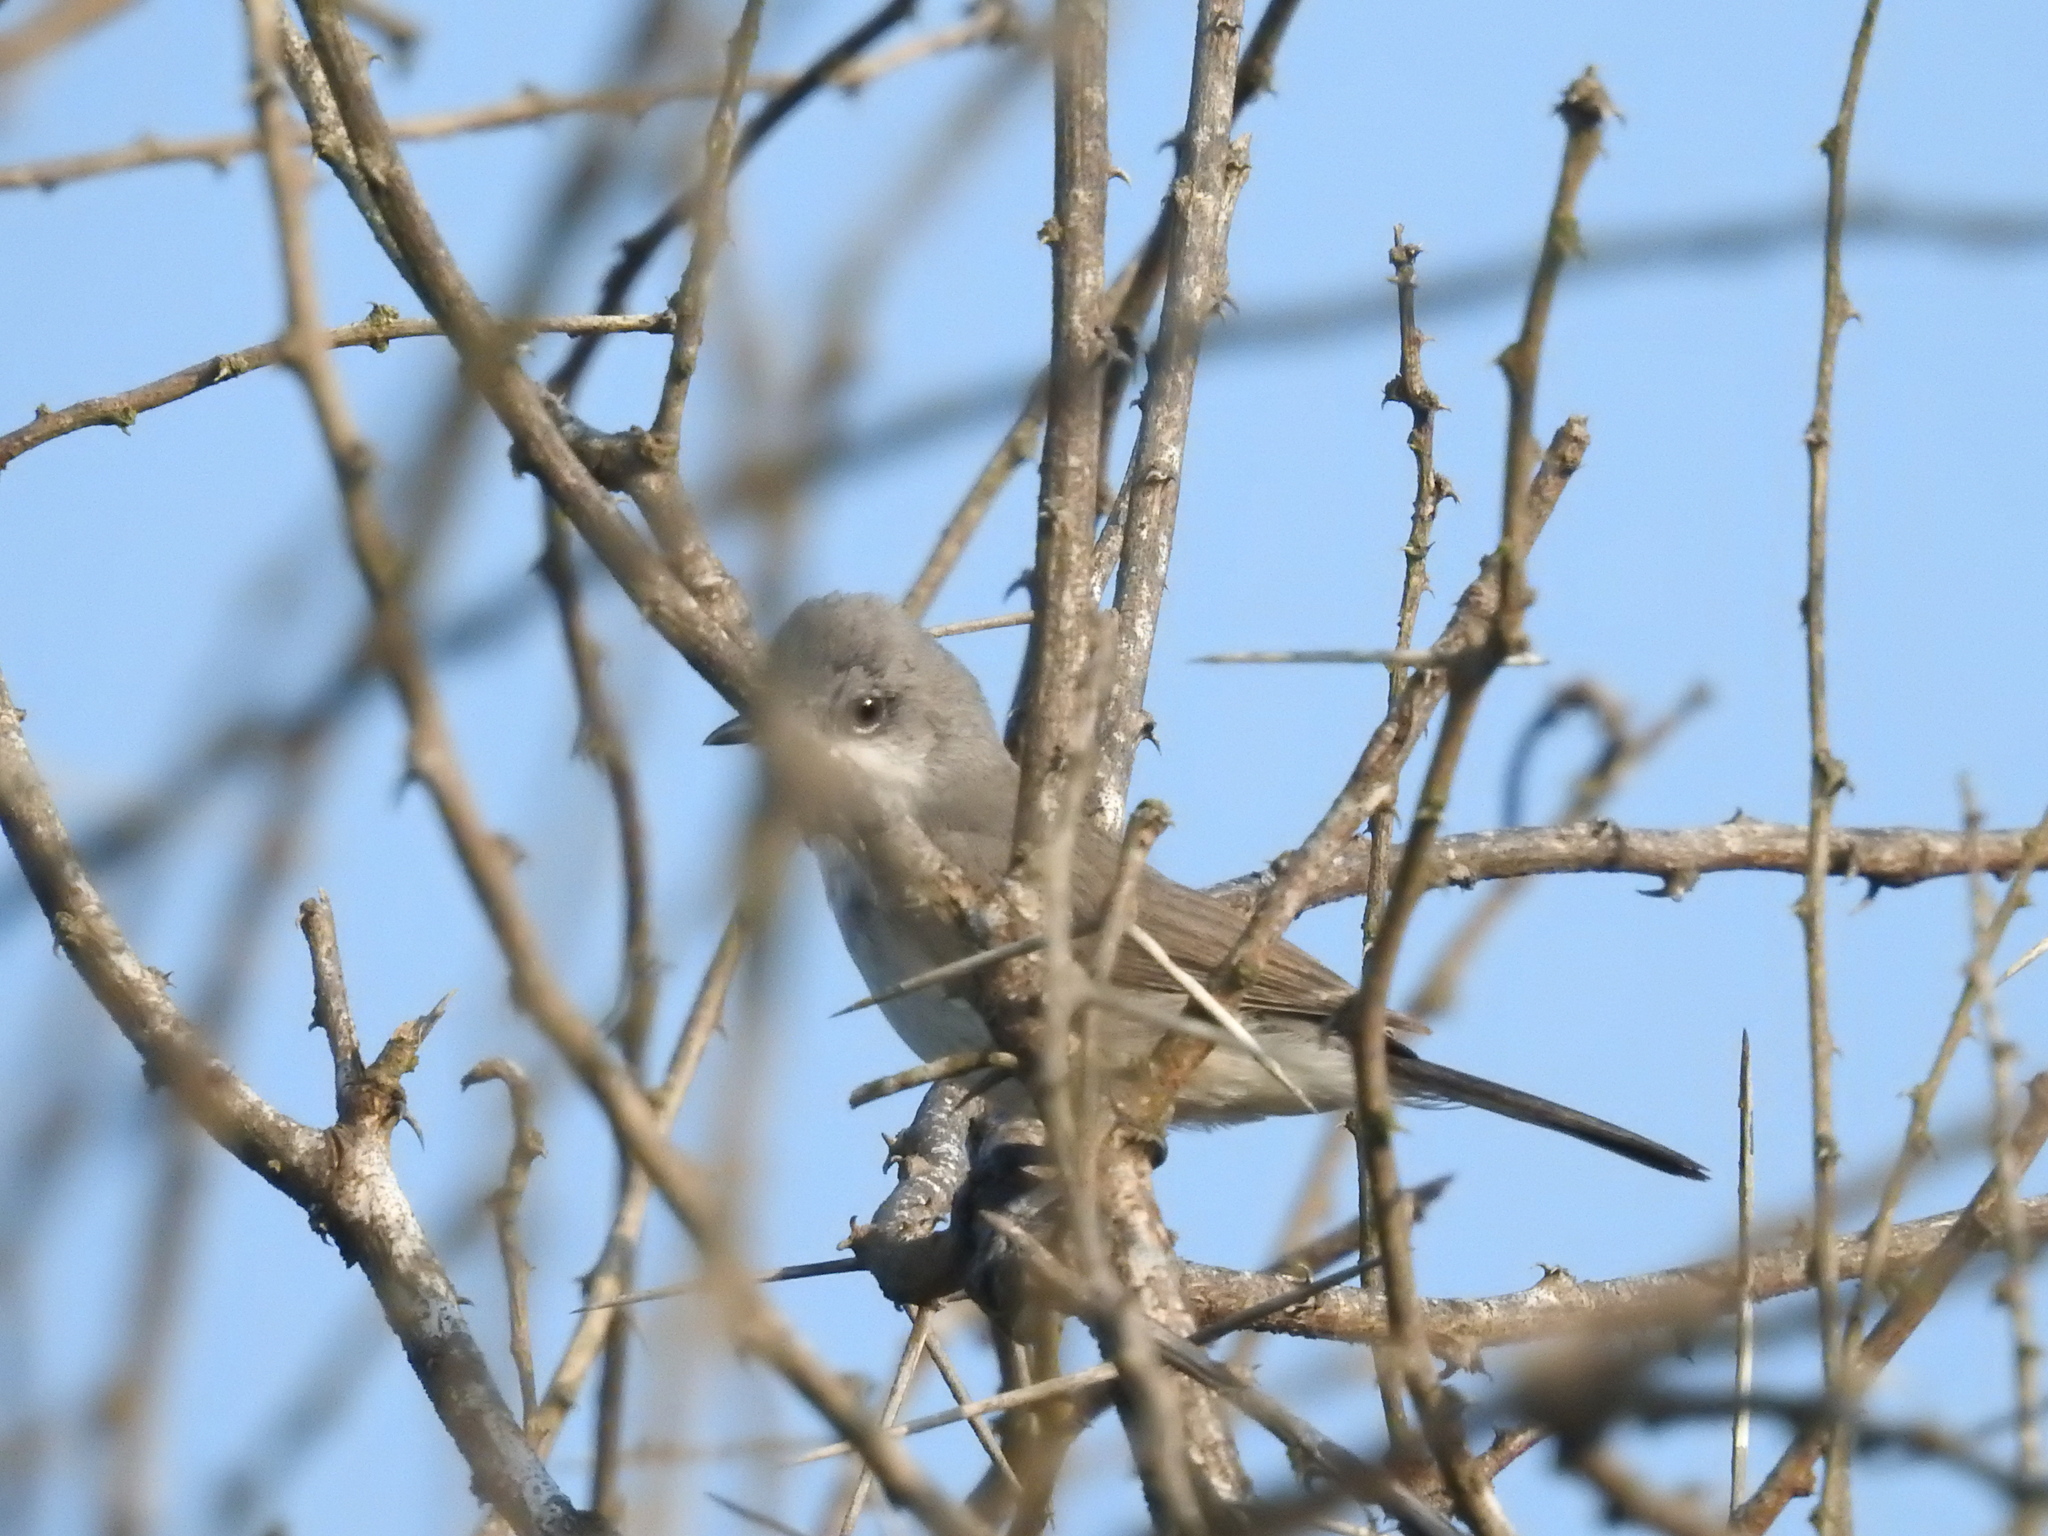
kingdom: Animalia
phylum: Chordata
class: Aves
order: Passeriformes
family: Sylviidae
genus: Sylvia
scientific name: Sylvia curruca
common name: Lesser whitethroat
